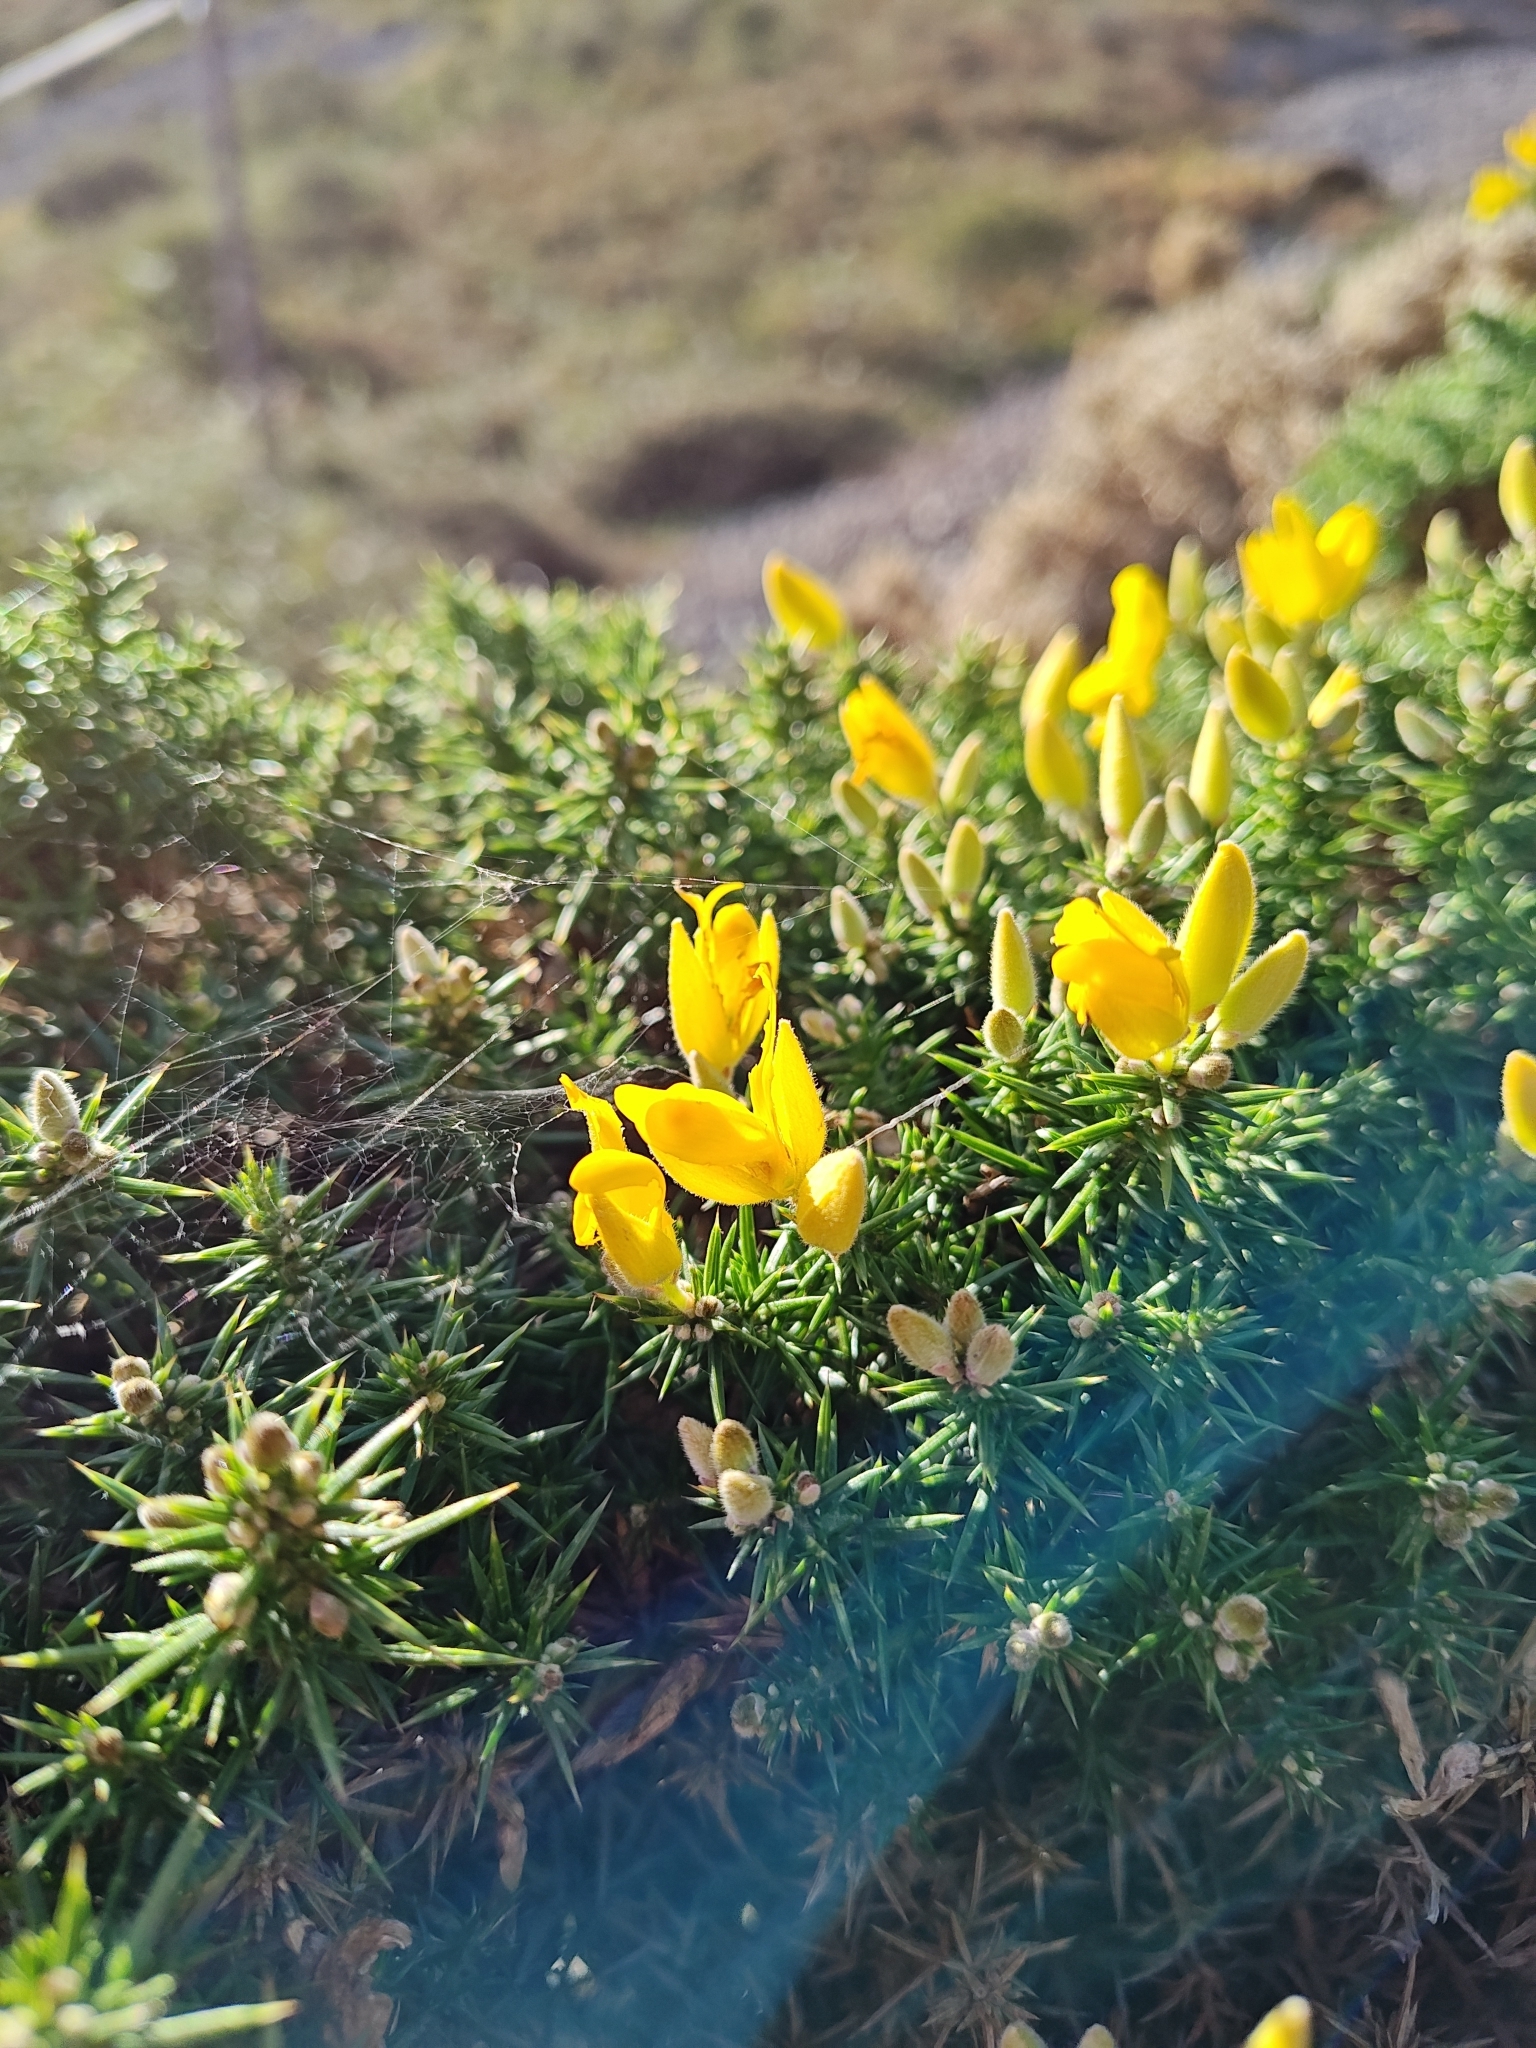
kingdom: Plantae
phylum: Tracheophyta
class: Magnoliopsida
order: Fabales
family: Fabaceae
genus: Ulex
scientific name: Ulex europaeus
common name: Common gorse
